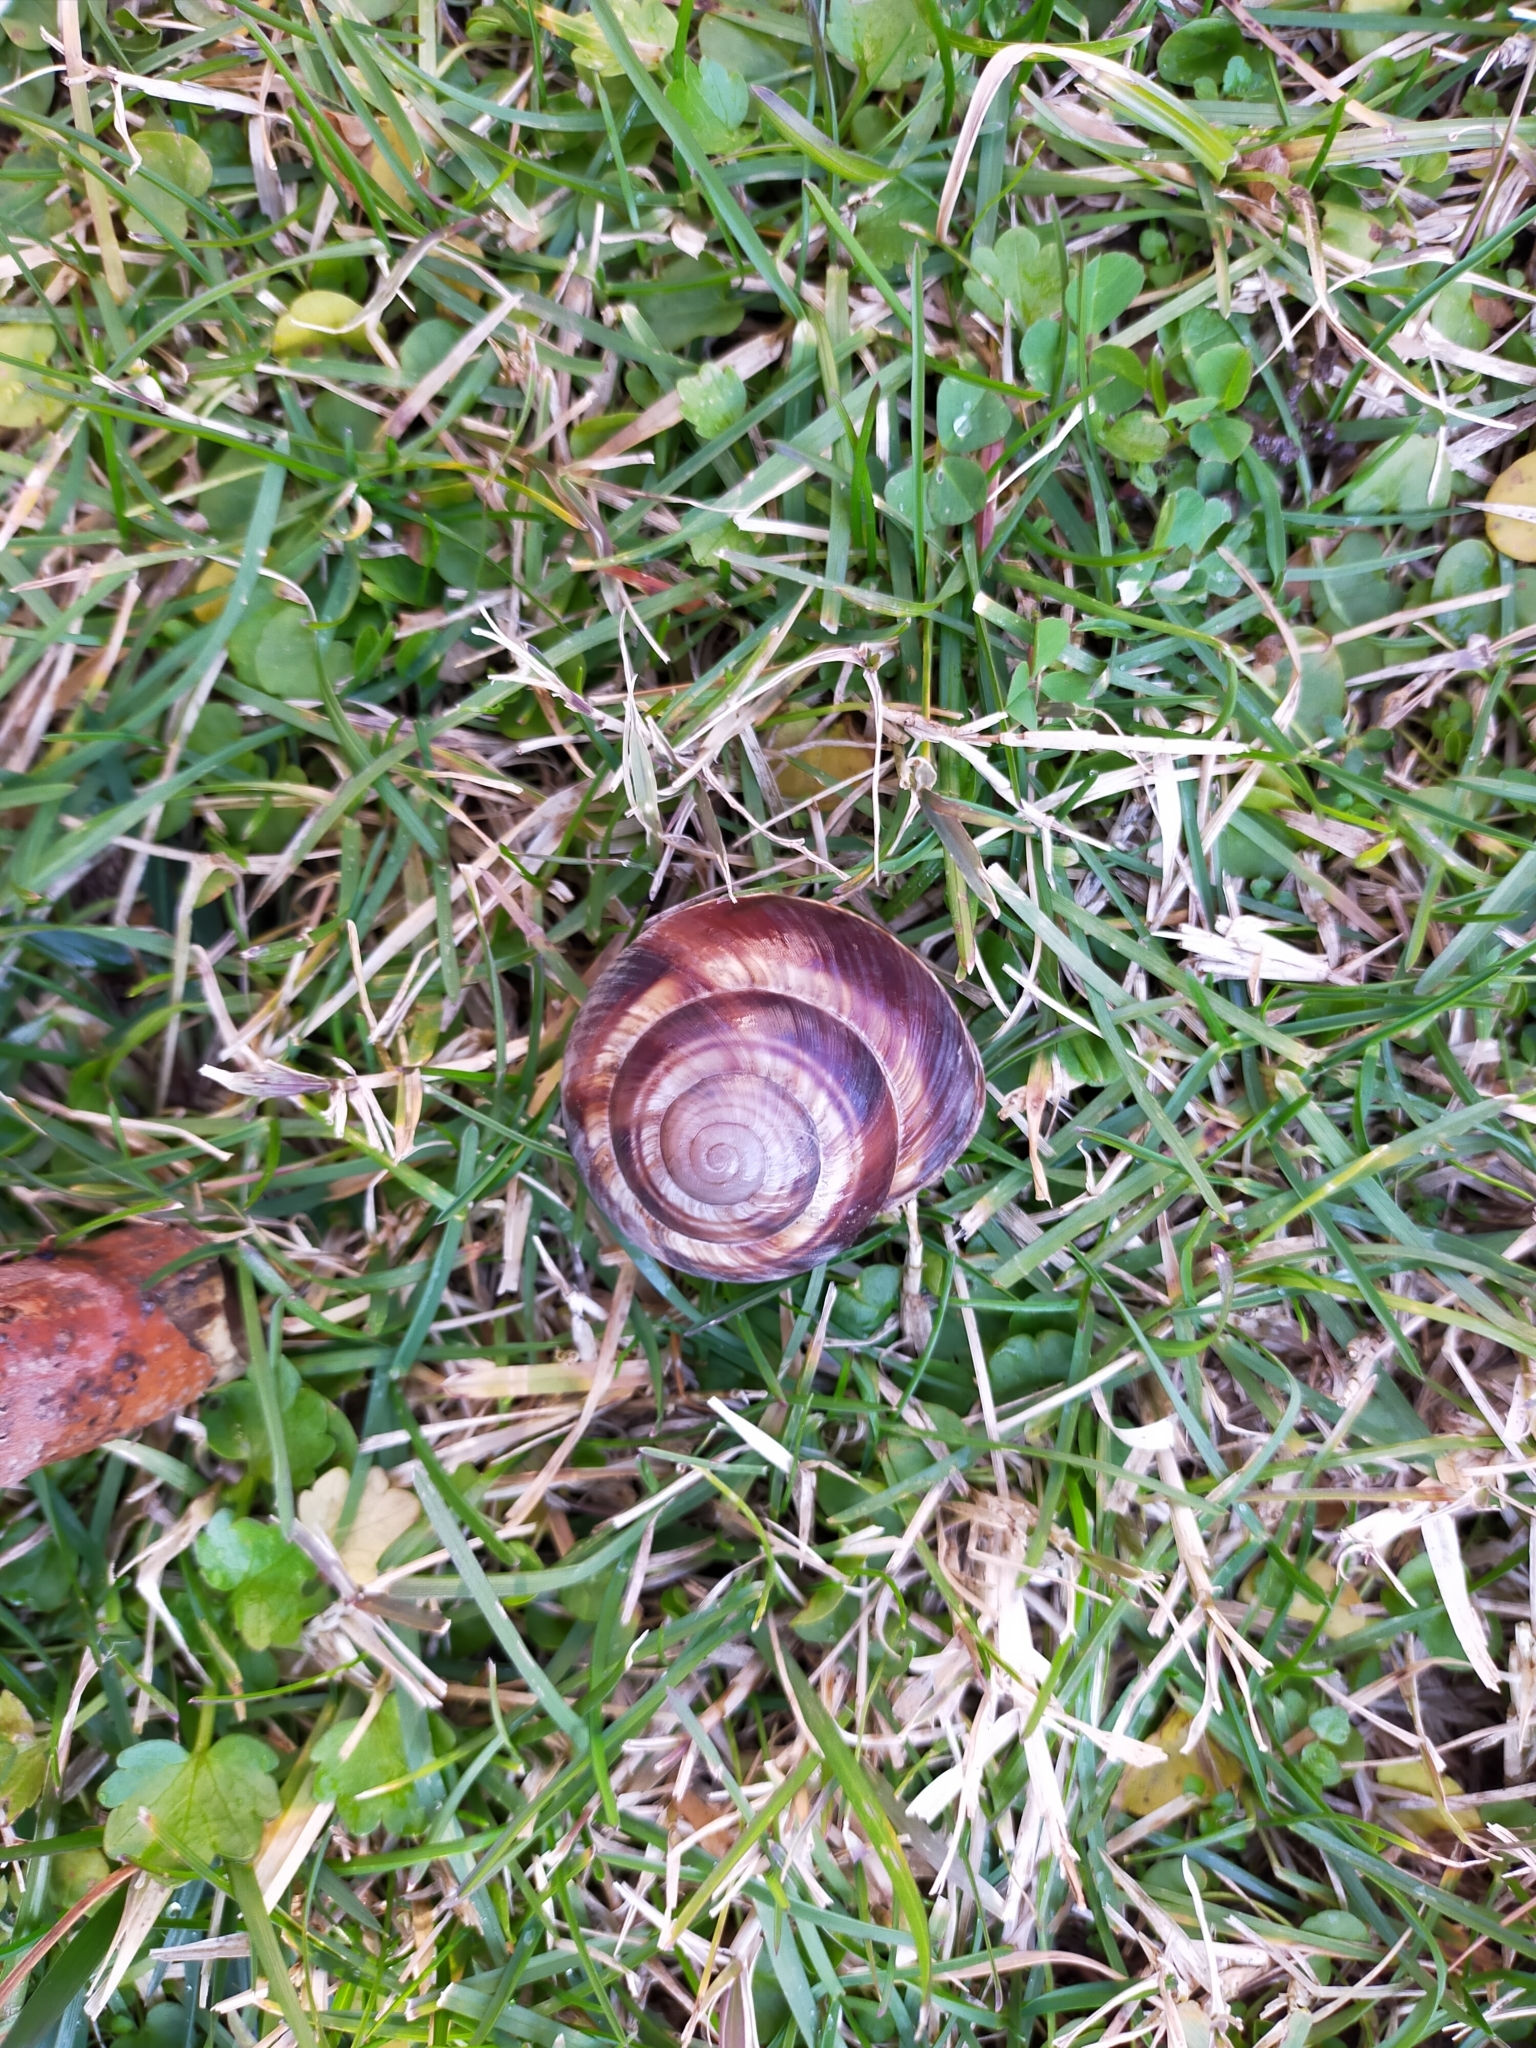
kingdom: Animalia
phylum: Mollusca
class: Gastropoda
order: Stylommatophora
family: Helicidae
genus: Helix
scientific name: Helix lucorum
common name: Turkish snail
